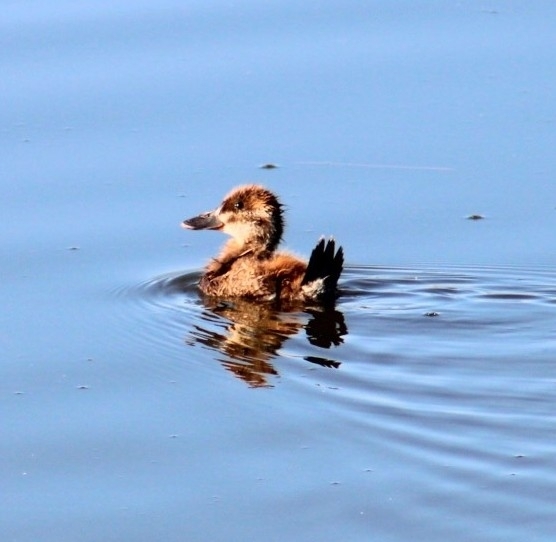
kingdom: Animalia
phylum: Chordata
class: Aves
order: Anseriformes
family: Anatidae
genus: Oxyura
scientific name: Oxyura jamaicensis
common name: Ruddy duck
